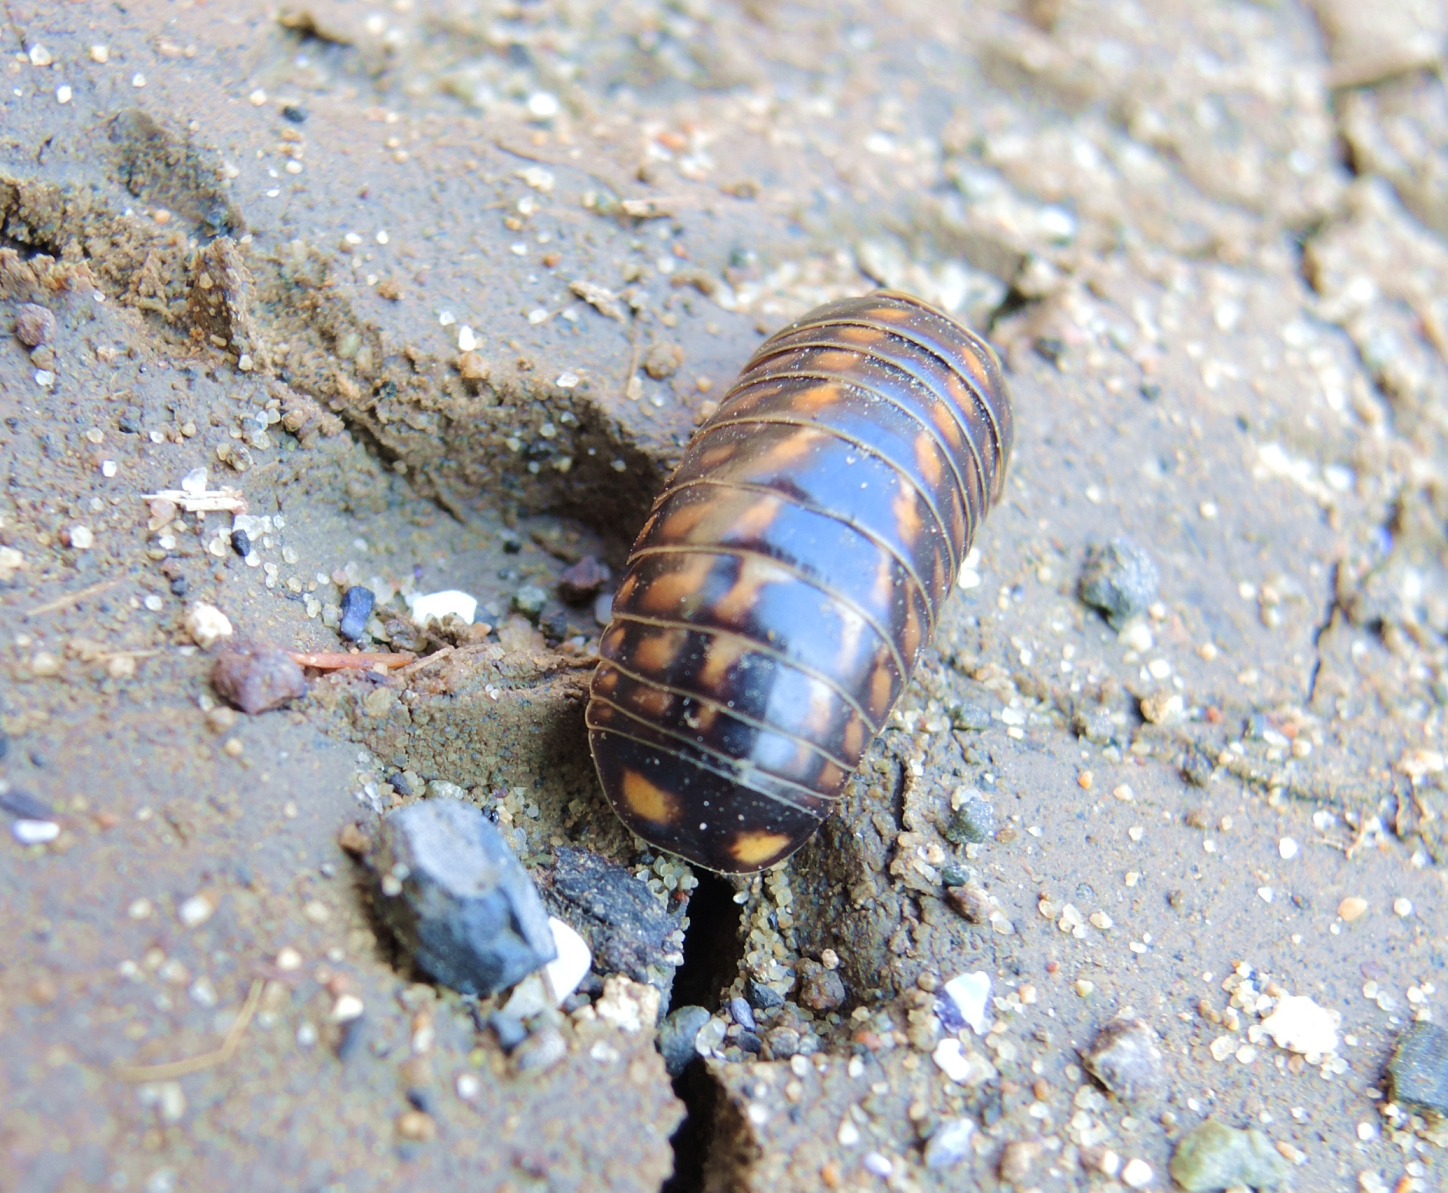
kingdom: Animalia
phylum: Arthropoda
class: Diplopoda
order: Glomerida
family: Glomeridae
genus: Glomeris
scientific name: Glomeris hexasticha
